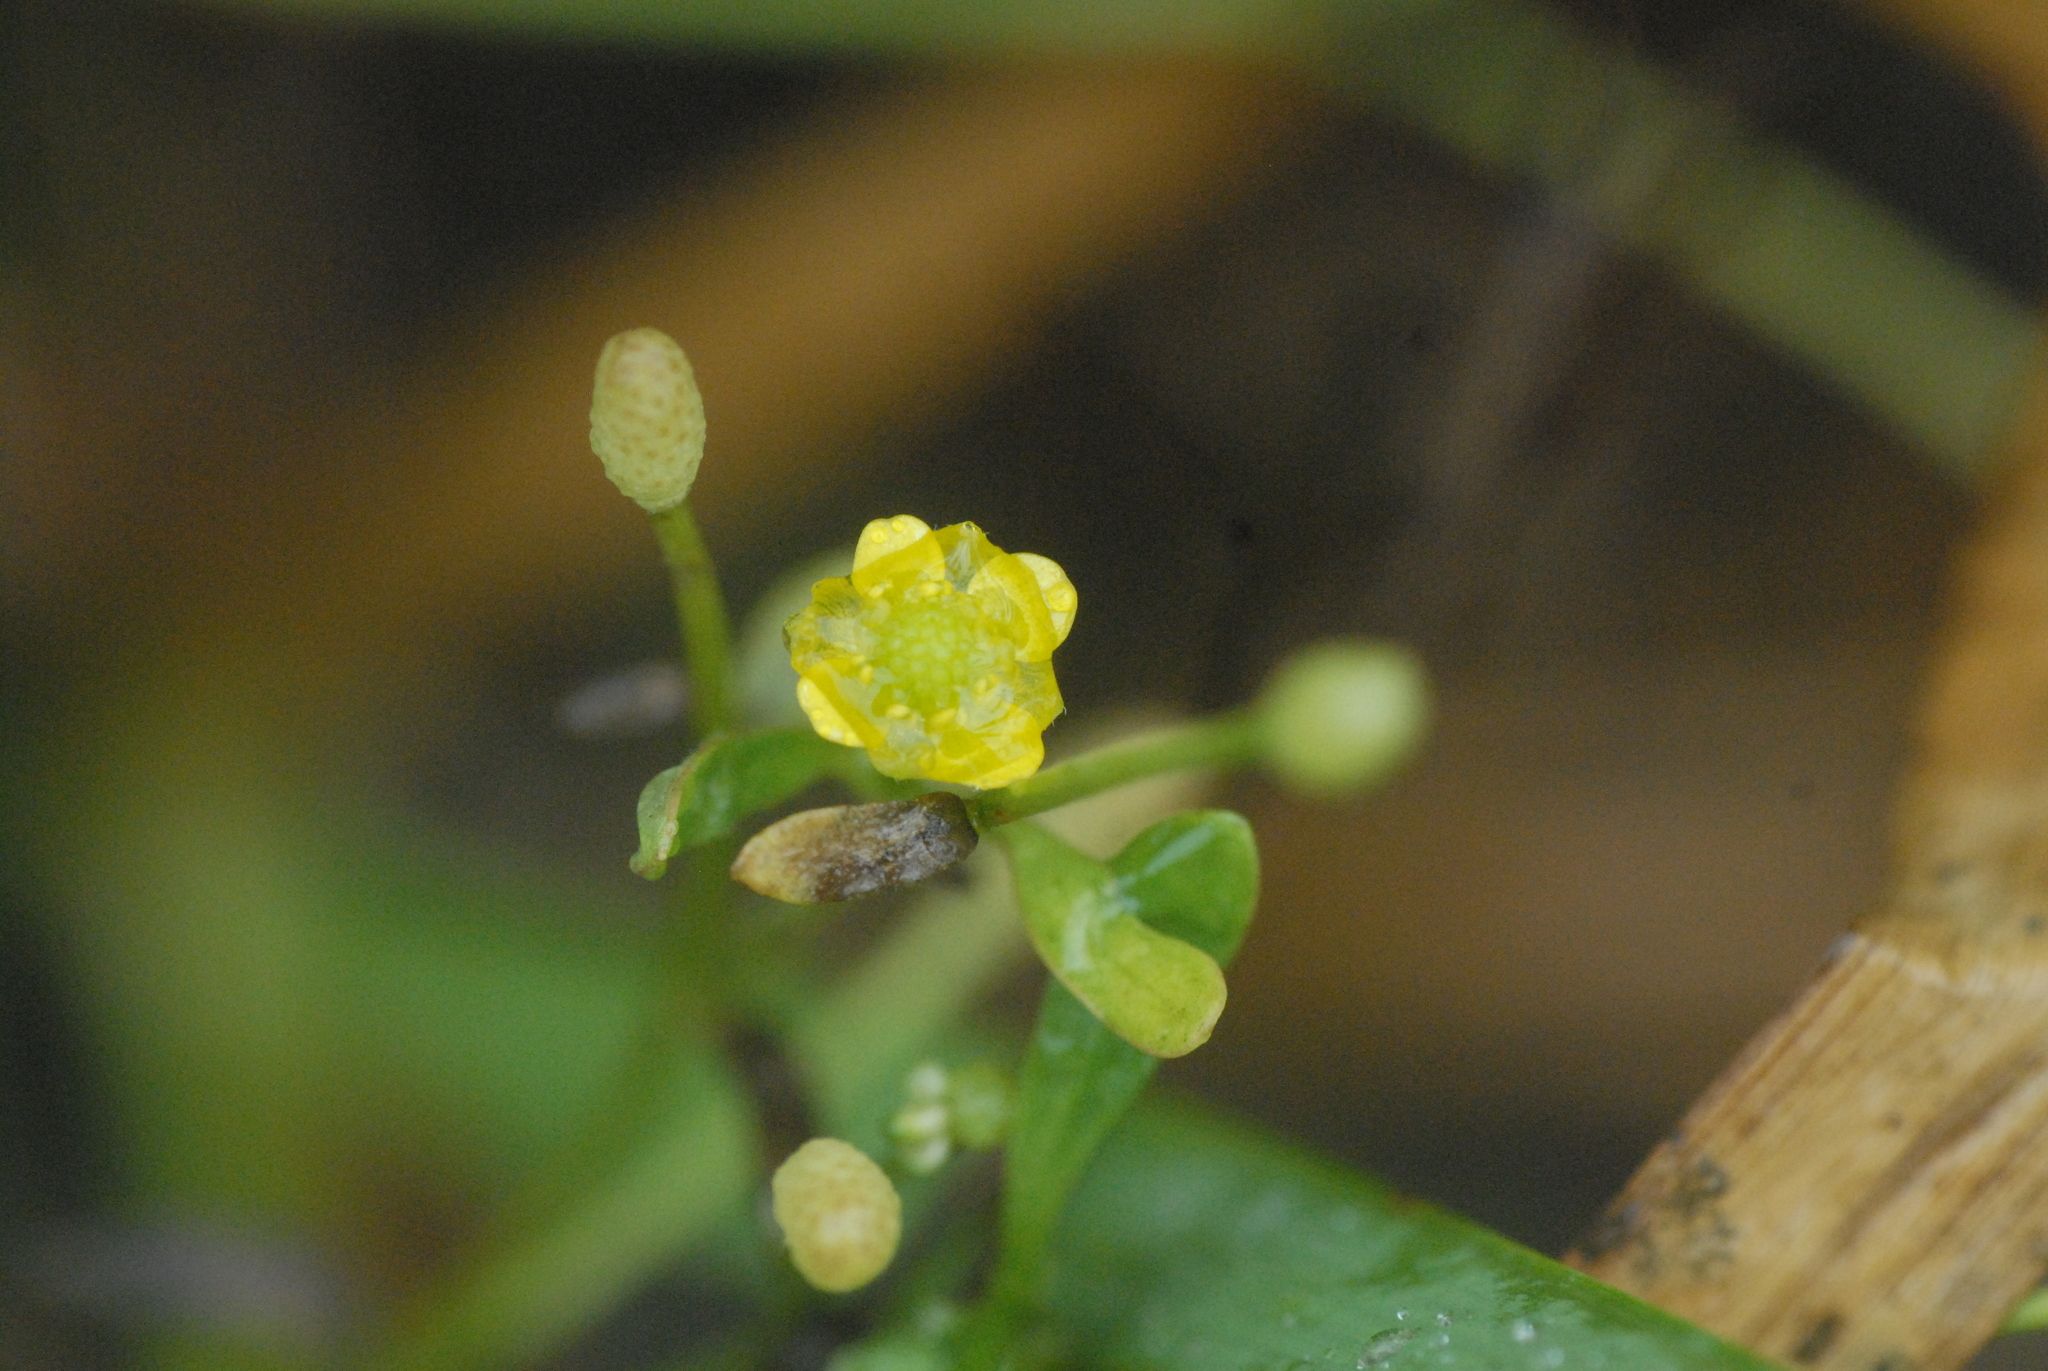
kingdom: Plantae
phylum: Tracheophyta
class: Magnoliopsida
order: Ranunculales
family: Ranunculaceae
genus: Ranunculus
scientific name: Ranunculus sceleratus
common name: Celery-leaved buttercup
